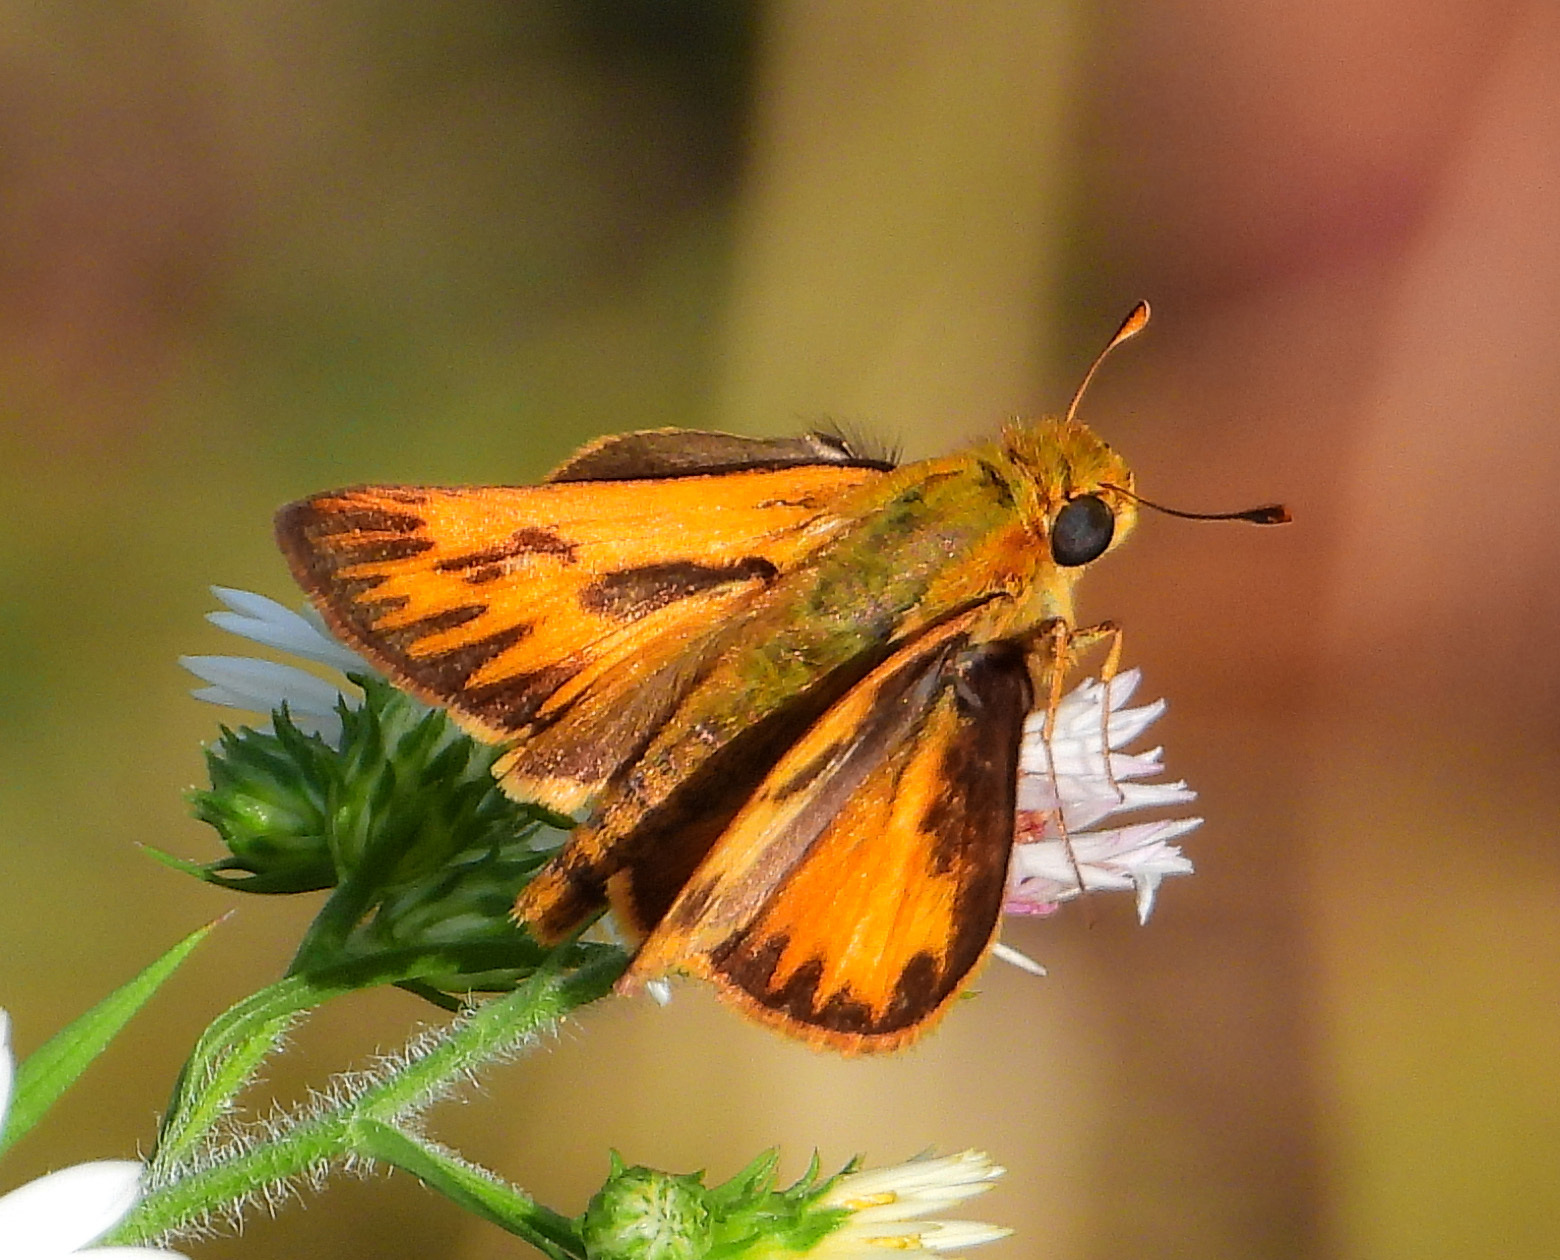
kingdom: Animalia
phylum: Arthropoda
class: Insecta
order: Lepidoptera
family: Hesperiidae
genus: Hylephila
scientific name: Hylephila phyleus
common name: Fiery skipper
